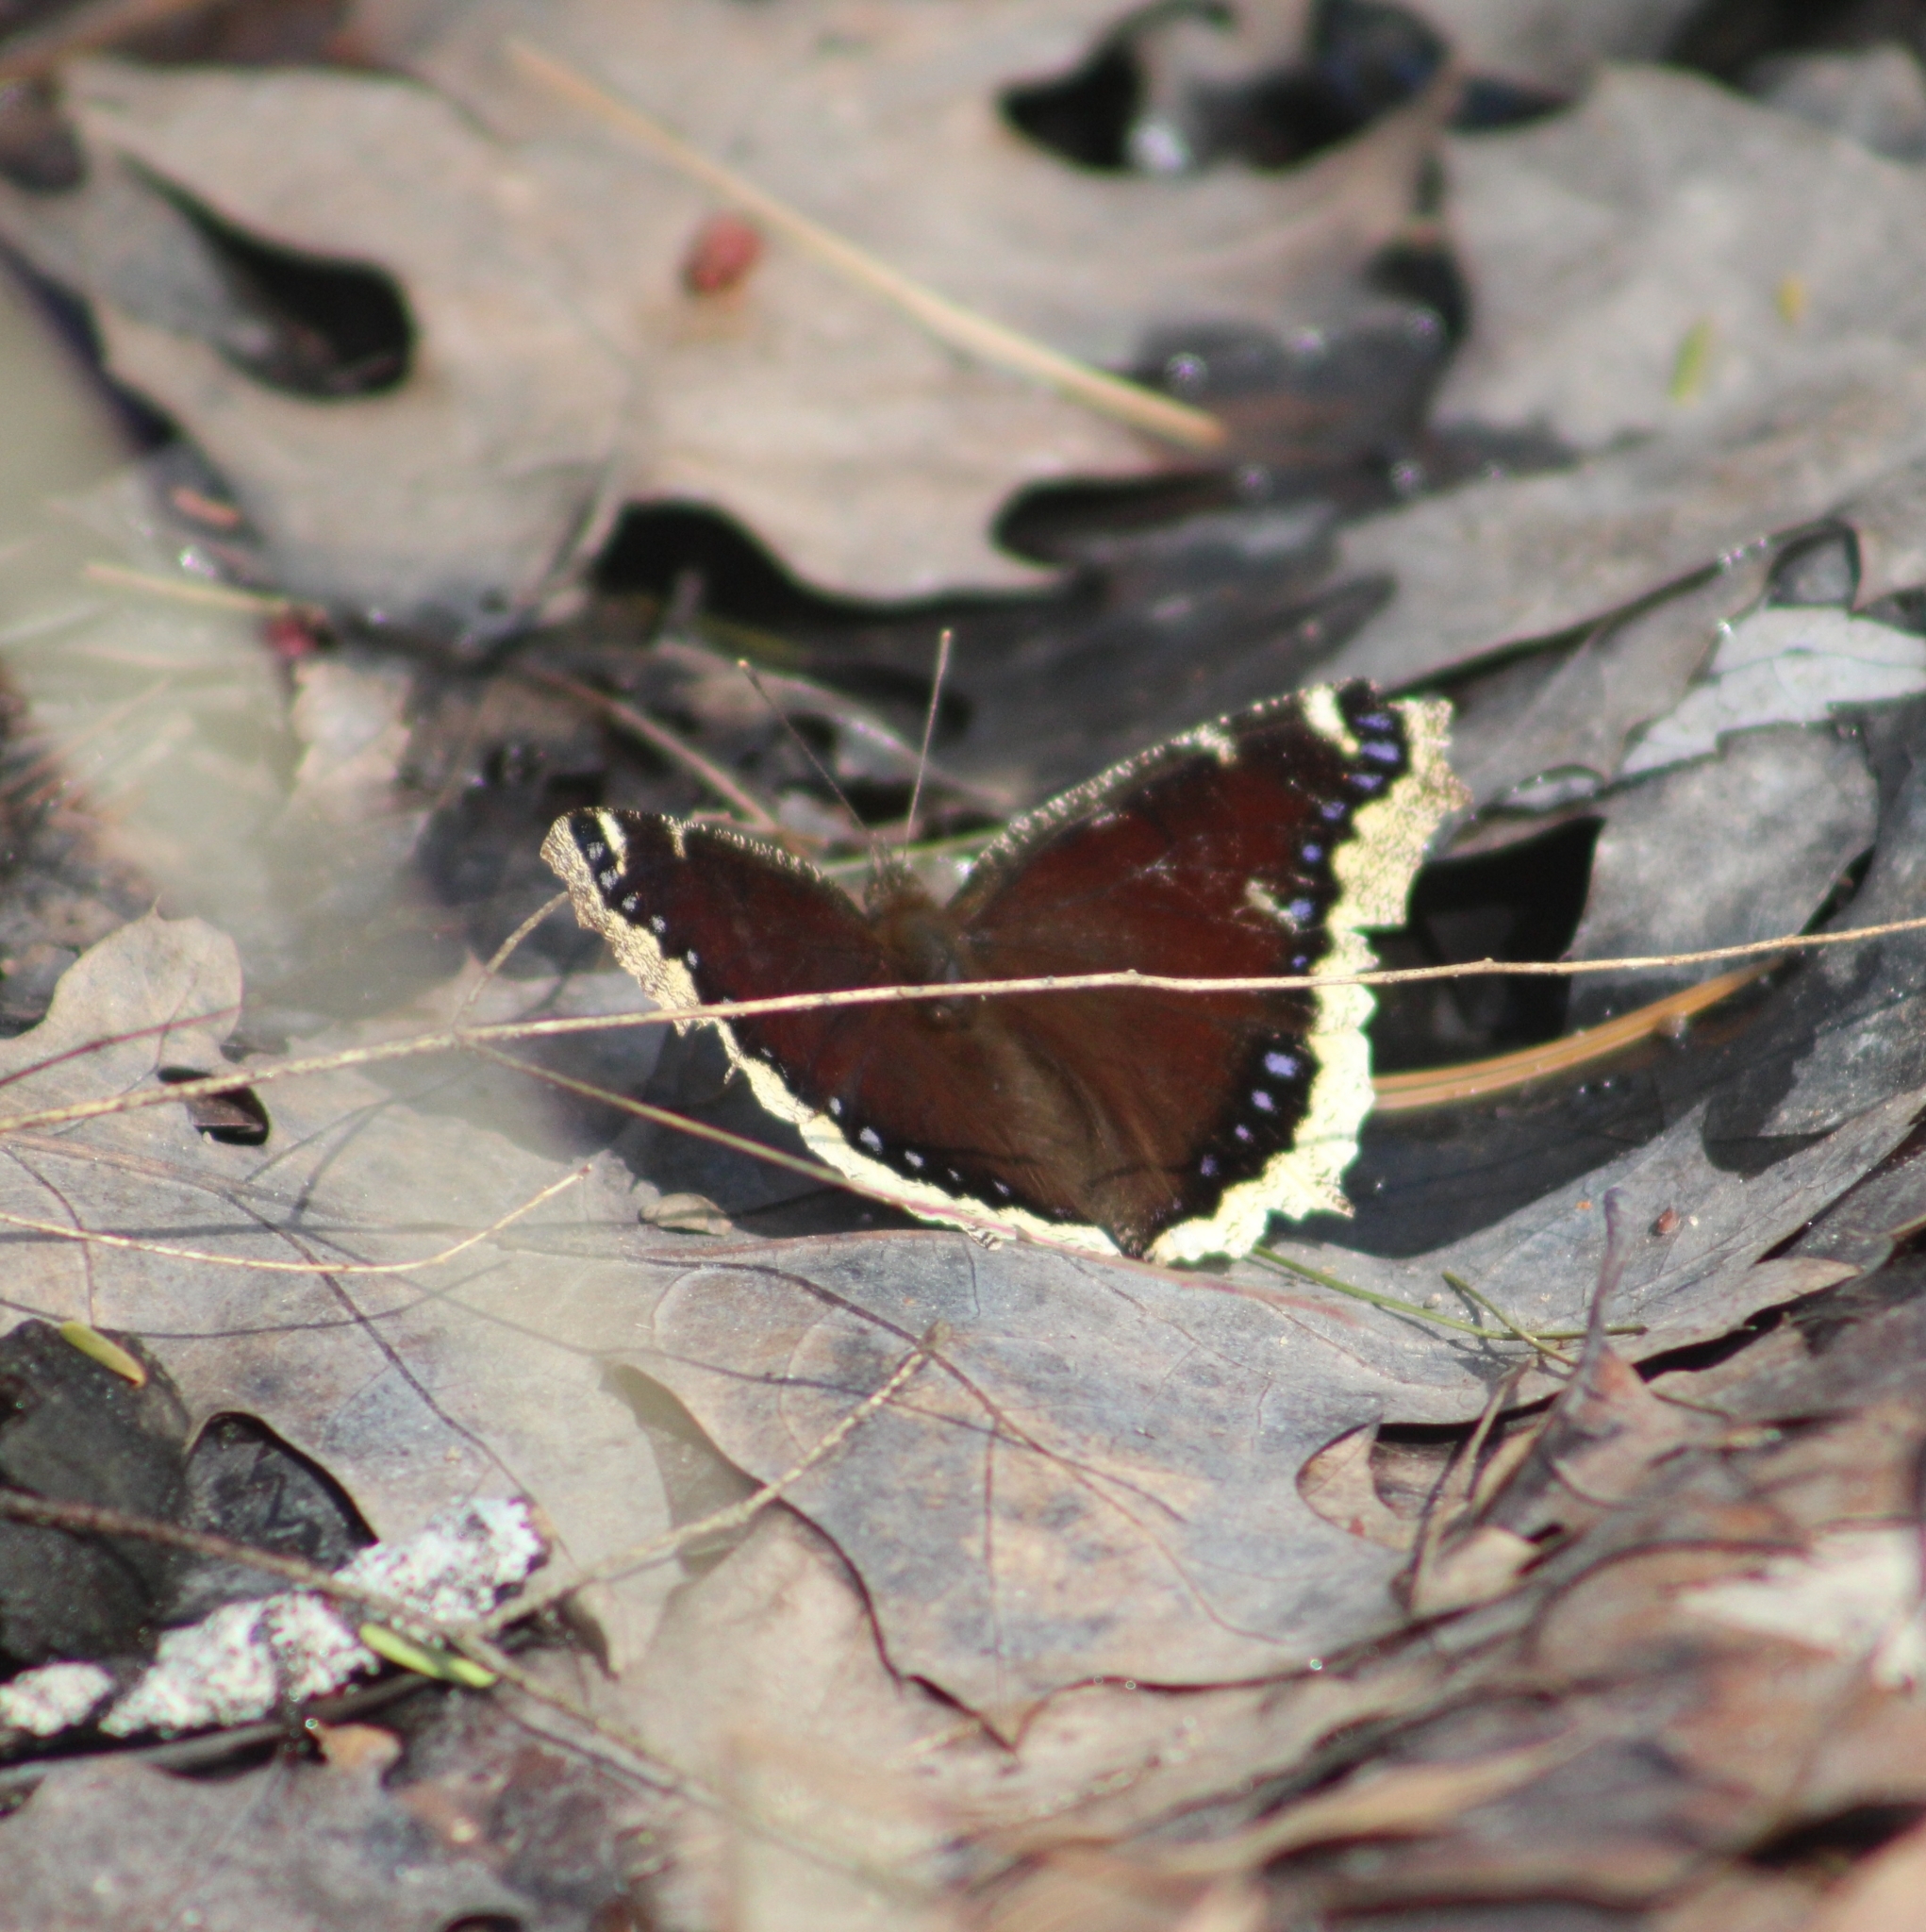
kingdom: Animalia
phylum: Arthropoda
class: Insecta
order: Lepidoptera
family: Nymphalidae
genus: Nymphalis
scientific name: Nymphalis antiopa
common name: Camberwell beauty
